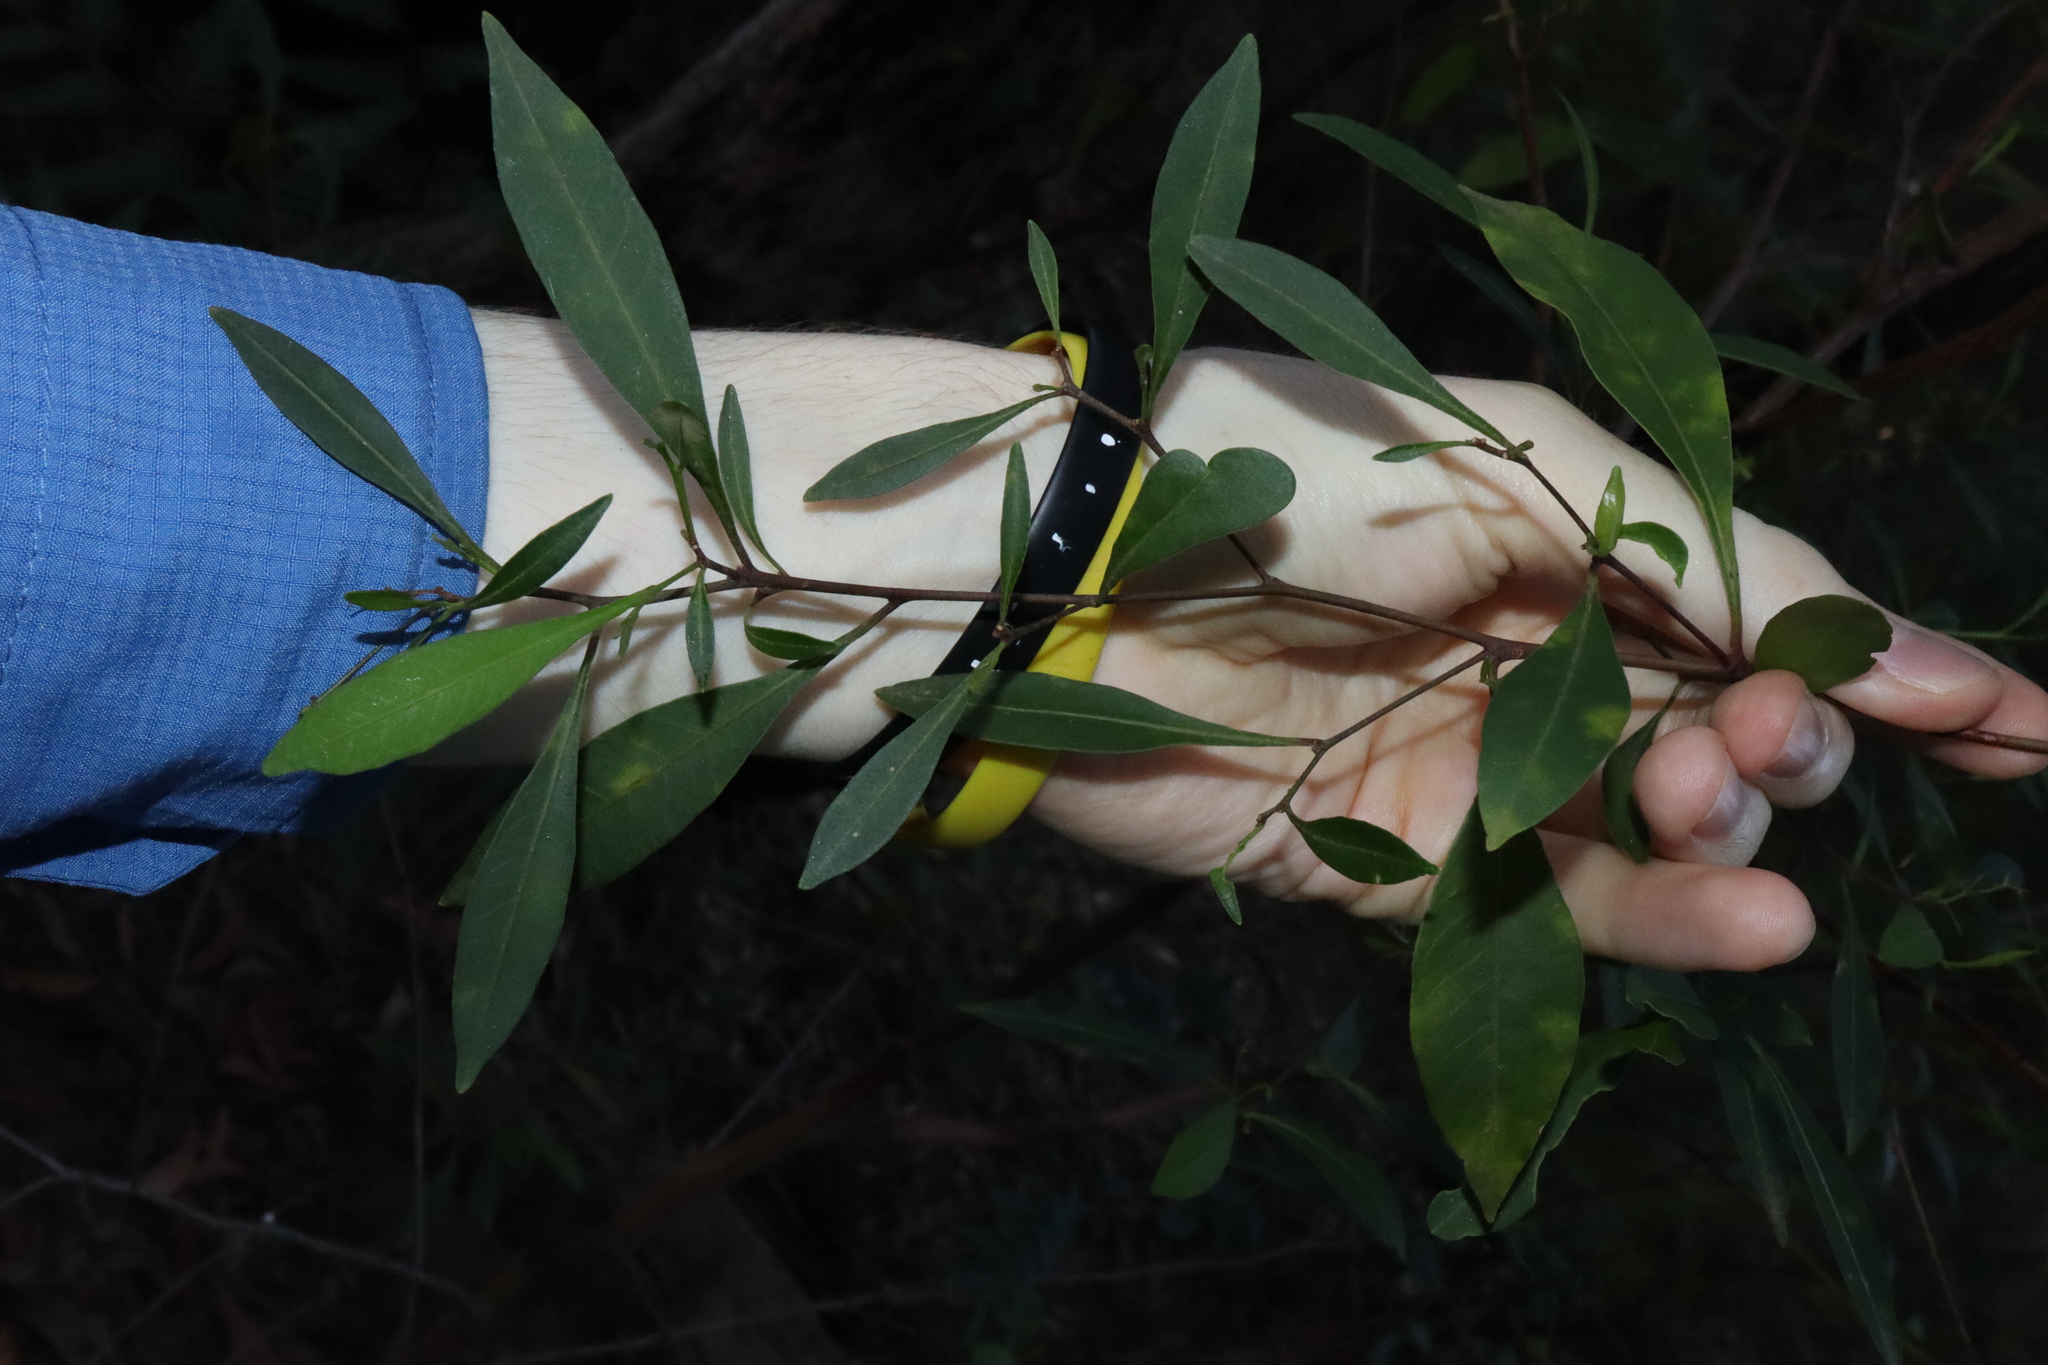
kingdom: Plantae
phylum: Tracheophyta
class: Magnoliopsida
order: Sapindales
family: Sapindaceae
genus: Dodonaea
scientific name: Dodonaea triquetra
